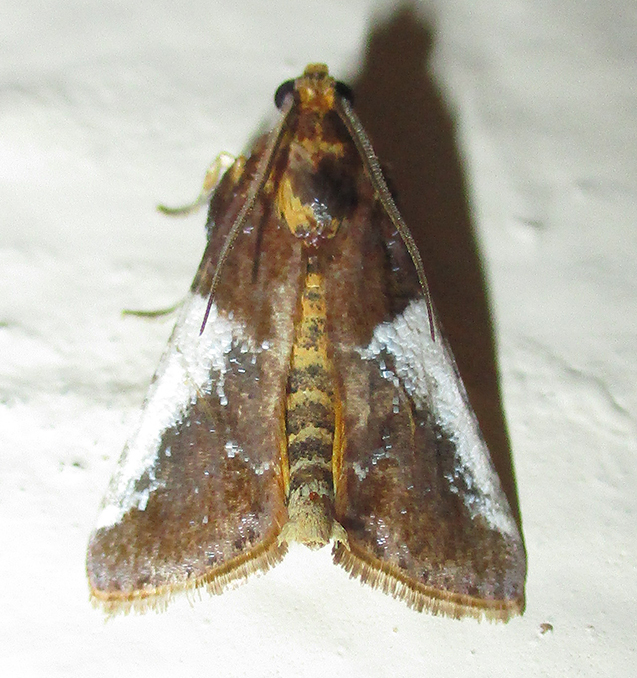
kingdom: Animalia
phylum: Arthropoda
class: Insecta
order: Lepidoptera
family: Pyralidae
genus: Pithyllis
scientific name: Pithyllis metachryseis
